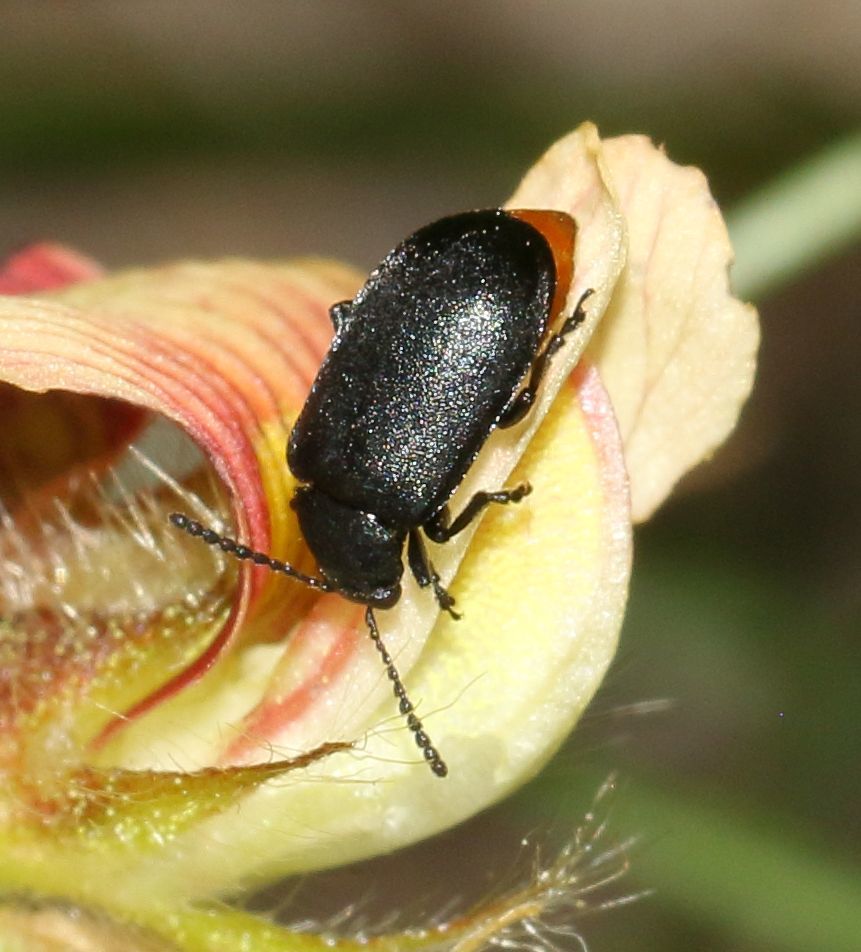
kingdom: Animalia
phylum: Arthropoda
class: Insecta
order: Coleoptera
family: Chrysomelidae
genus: Gastrida
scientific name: Gastrida
